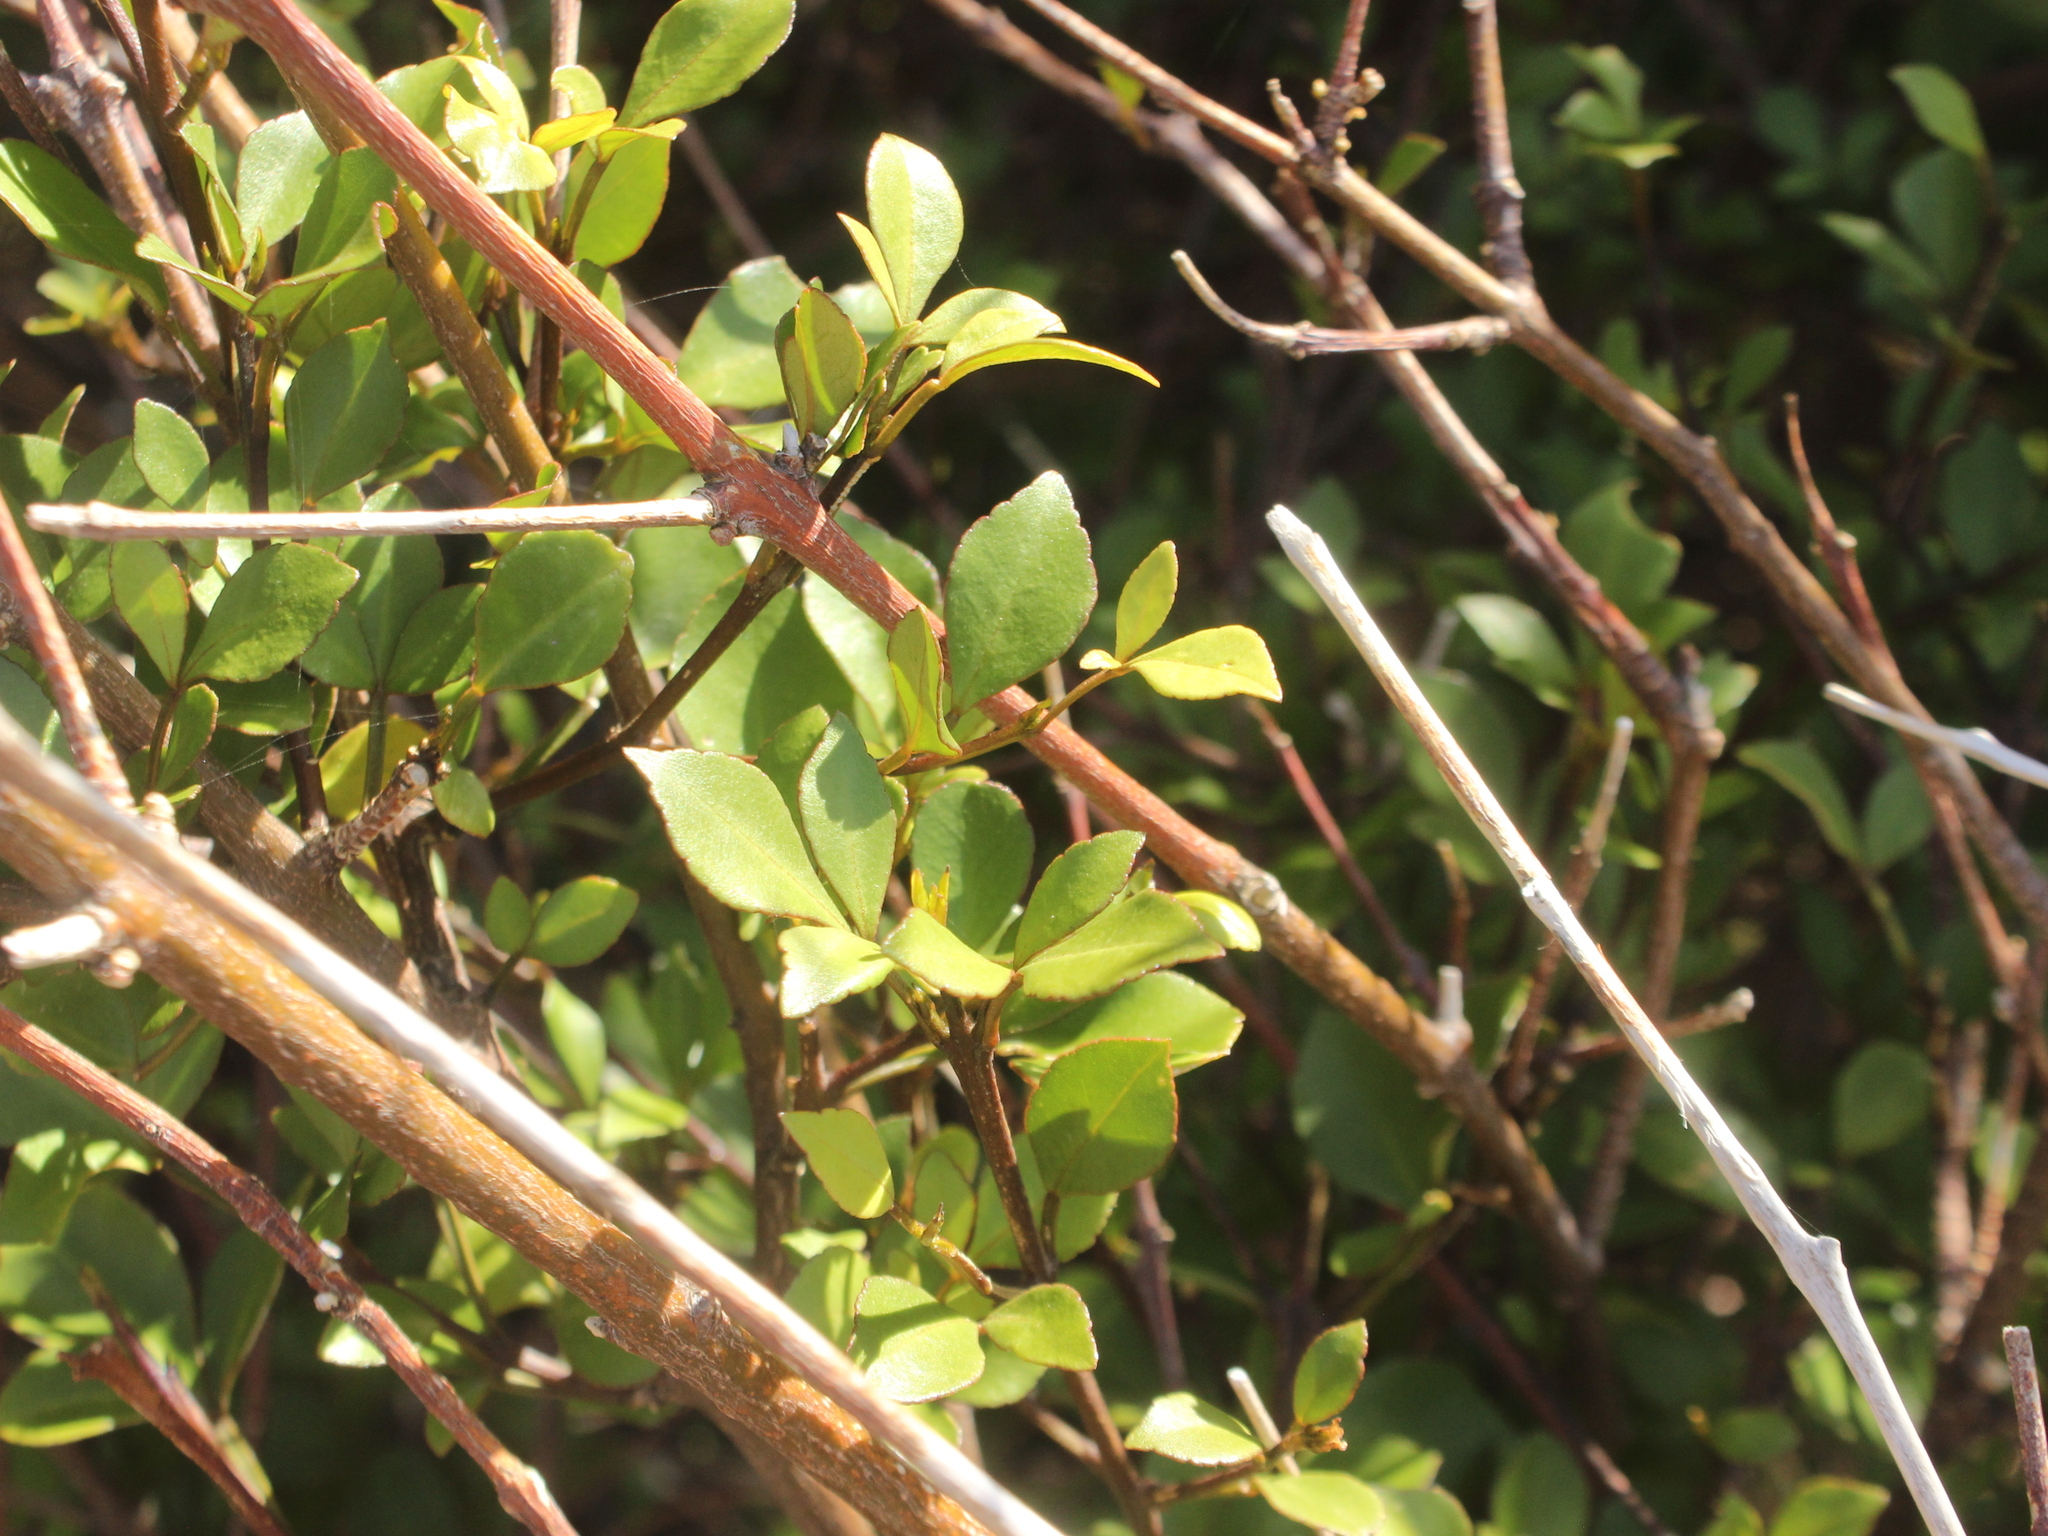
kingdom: Plantae
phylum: Tracheophyta
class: Magnoliopsida
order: Sapindales
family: Rutaceae
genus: Melicope
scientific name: Melicope mantellii
